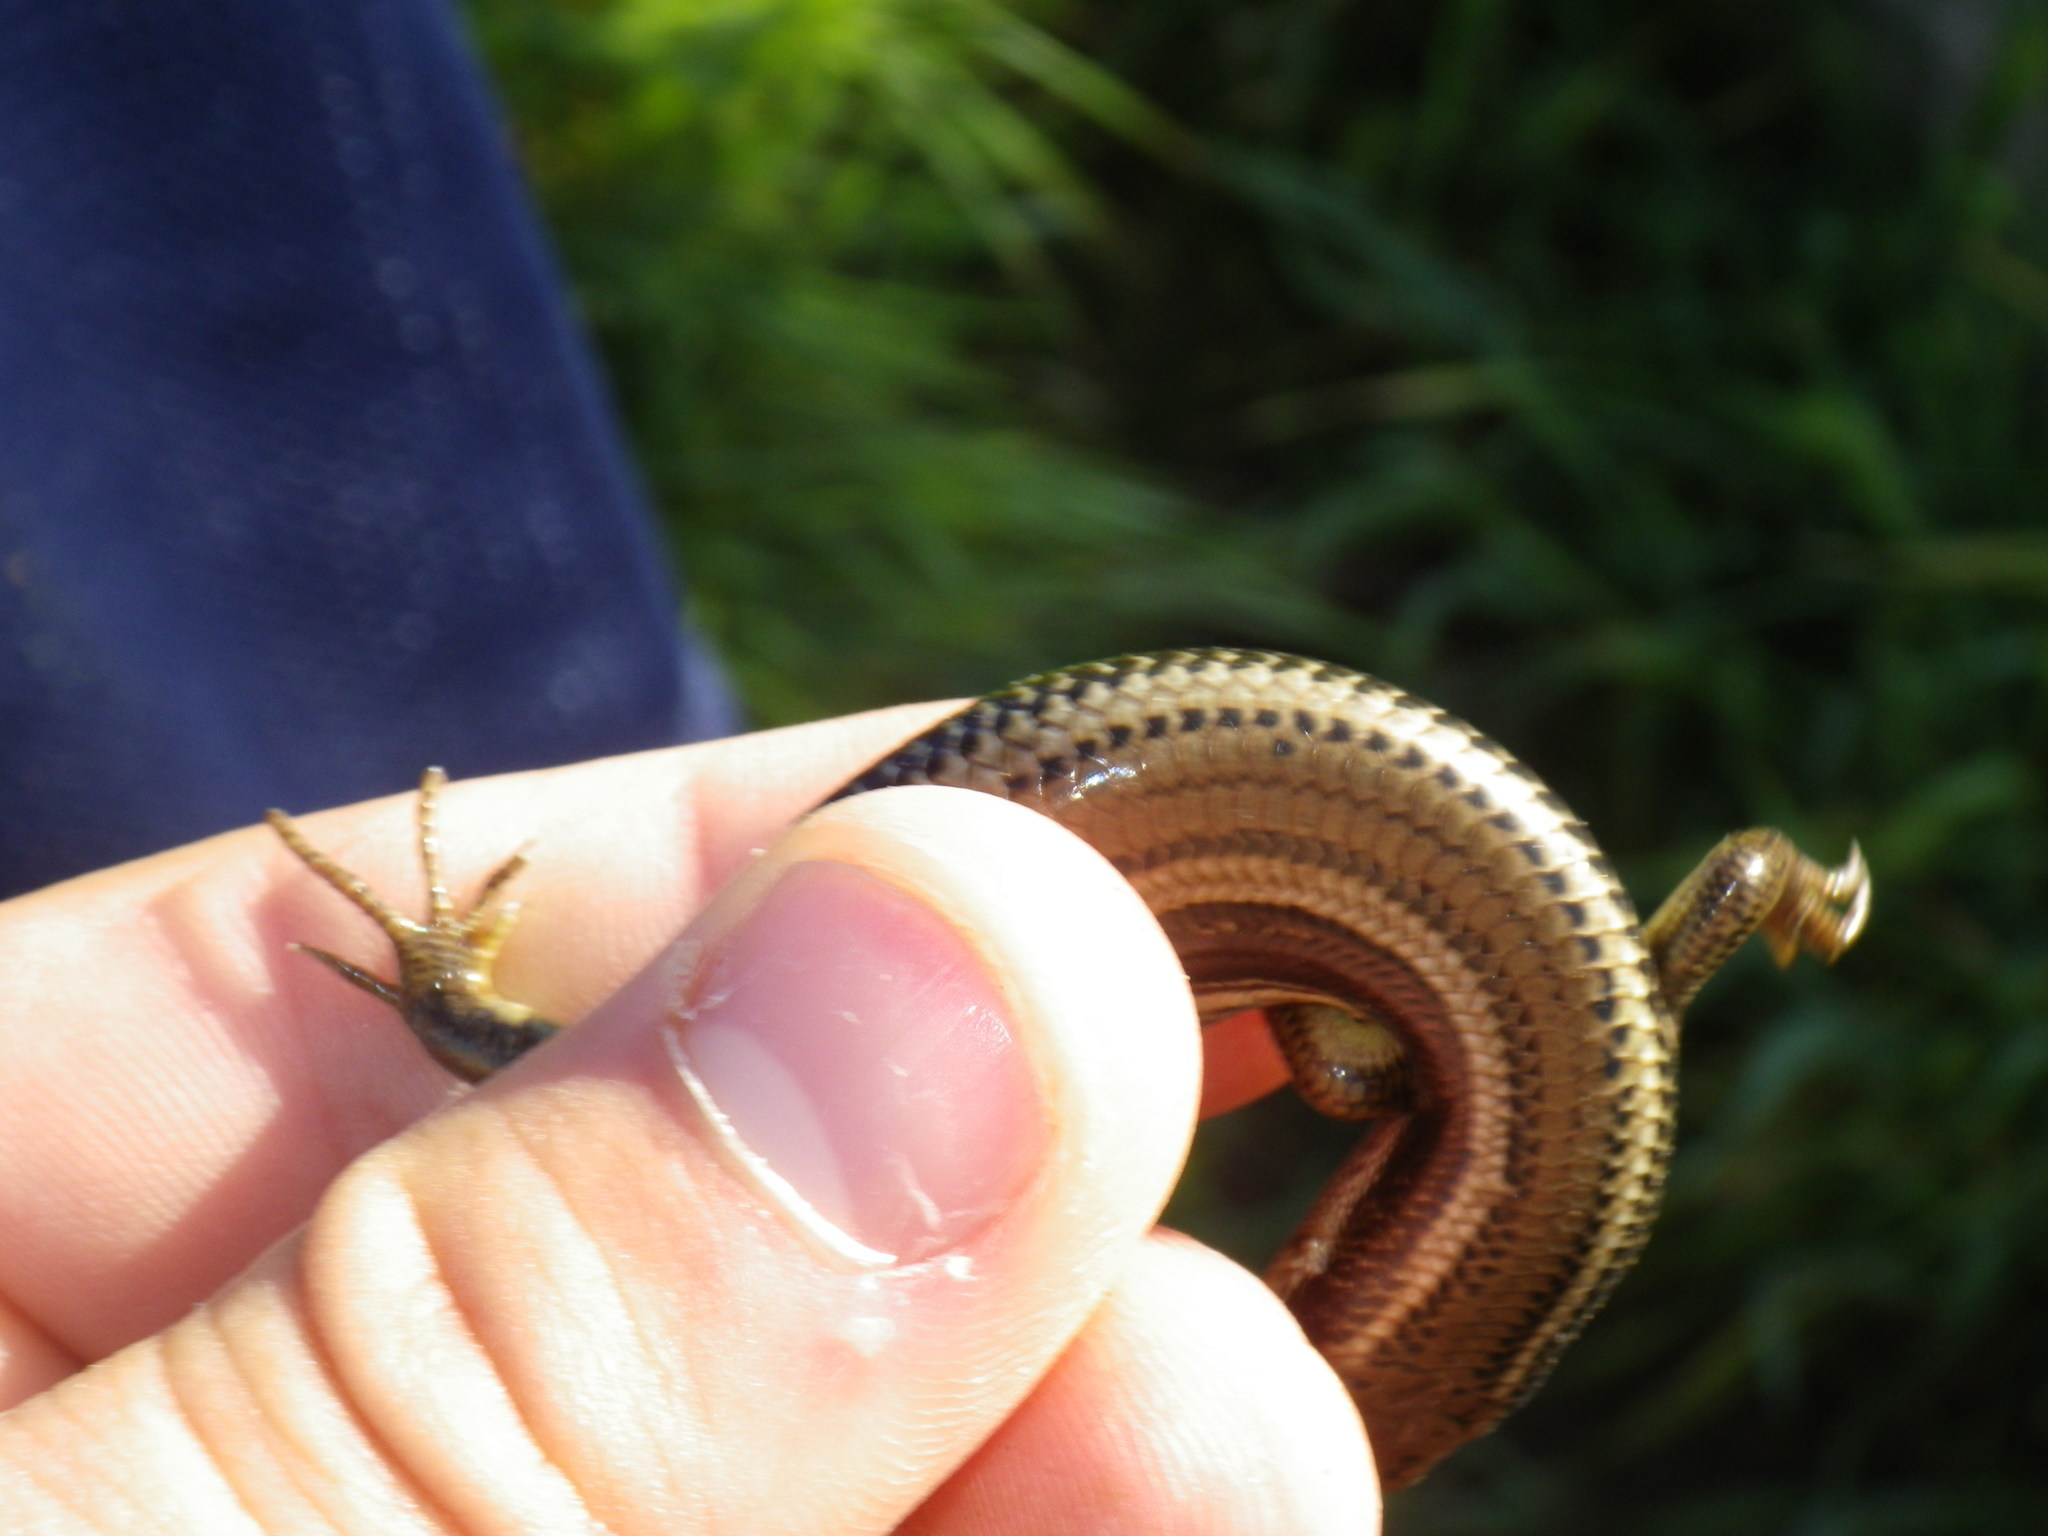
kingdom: Animalia
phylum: Chordata
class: Squamata
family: Scincidae
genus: Plestiodon
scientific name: Plestiodon gilberti
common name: Gilbert's skink
